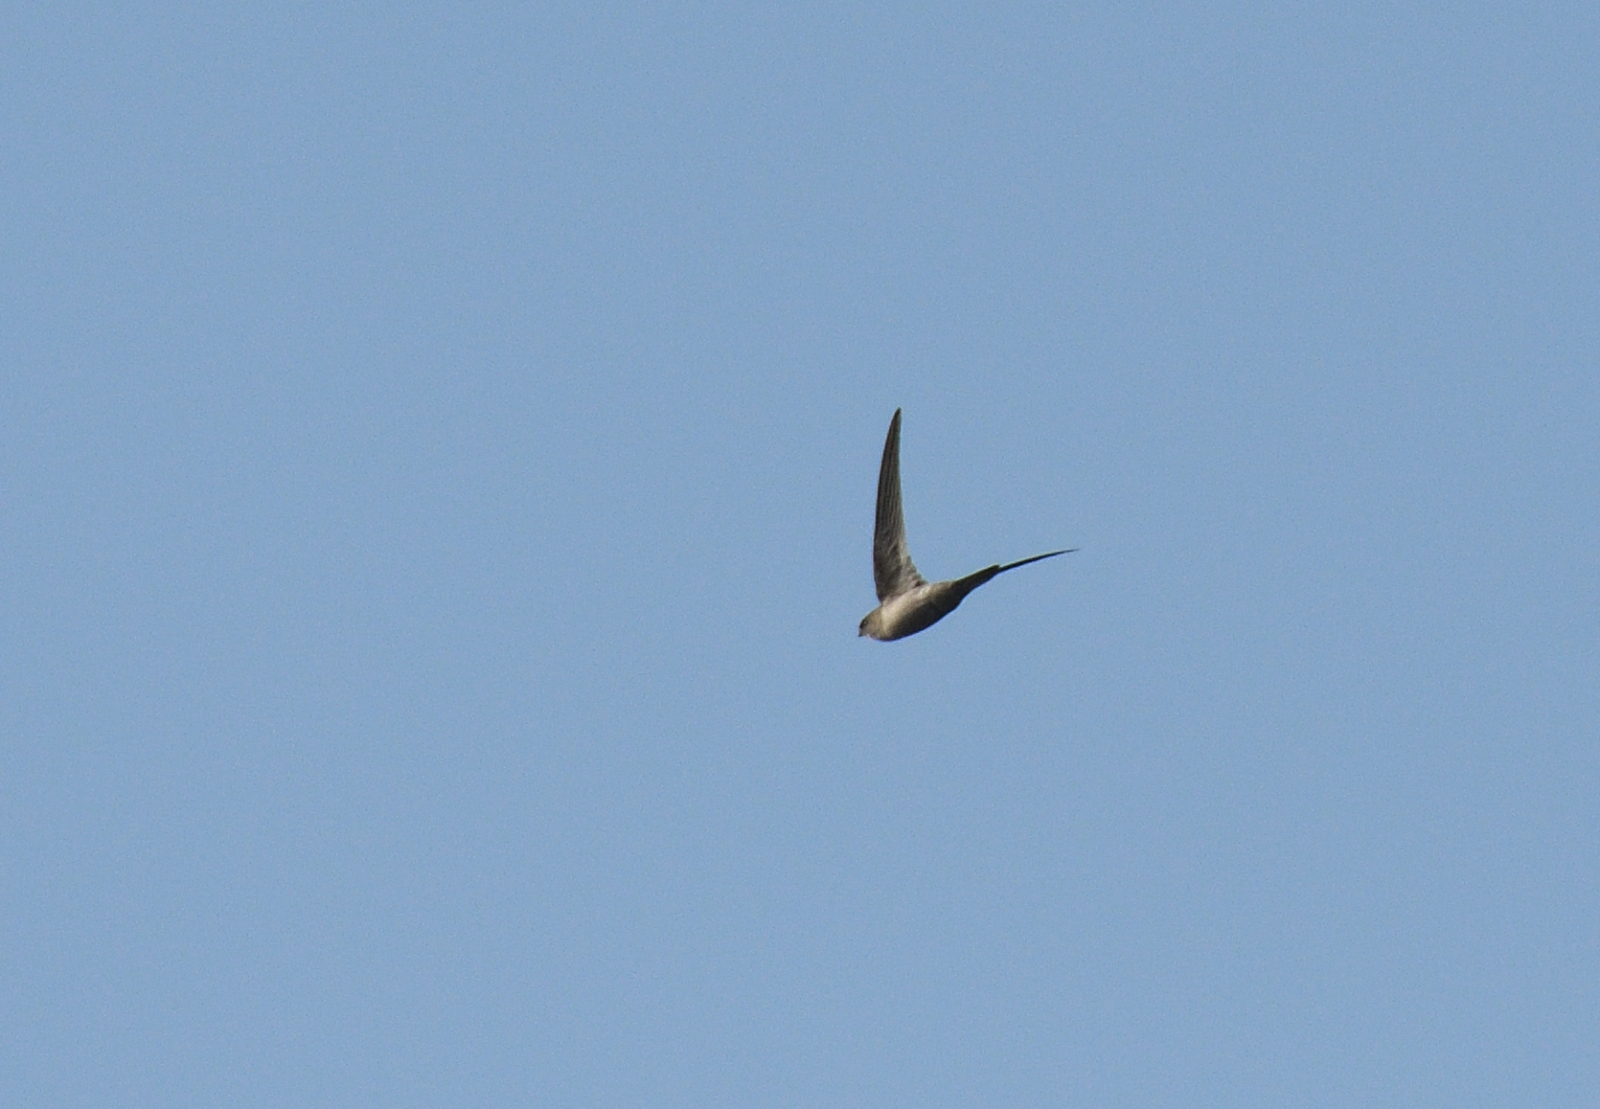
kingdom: Animalia
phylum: Chordata
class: Aves
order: Apodiformes
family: Apodidae
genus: Cypsiurus
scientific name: Cypsiurus balasiensis
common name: Asian palm swift
